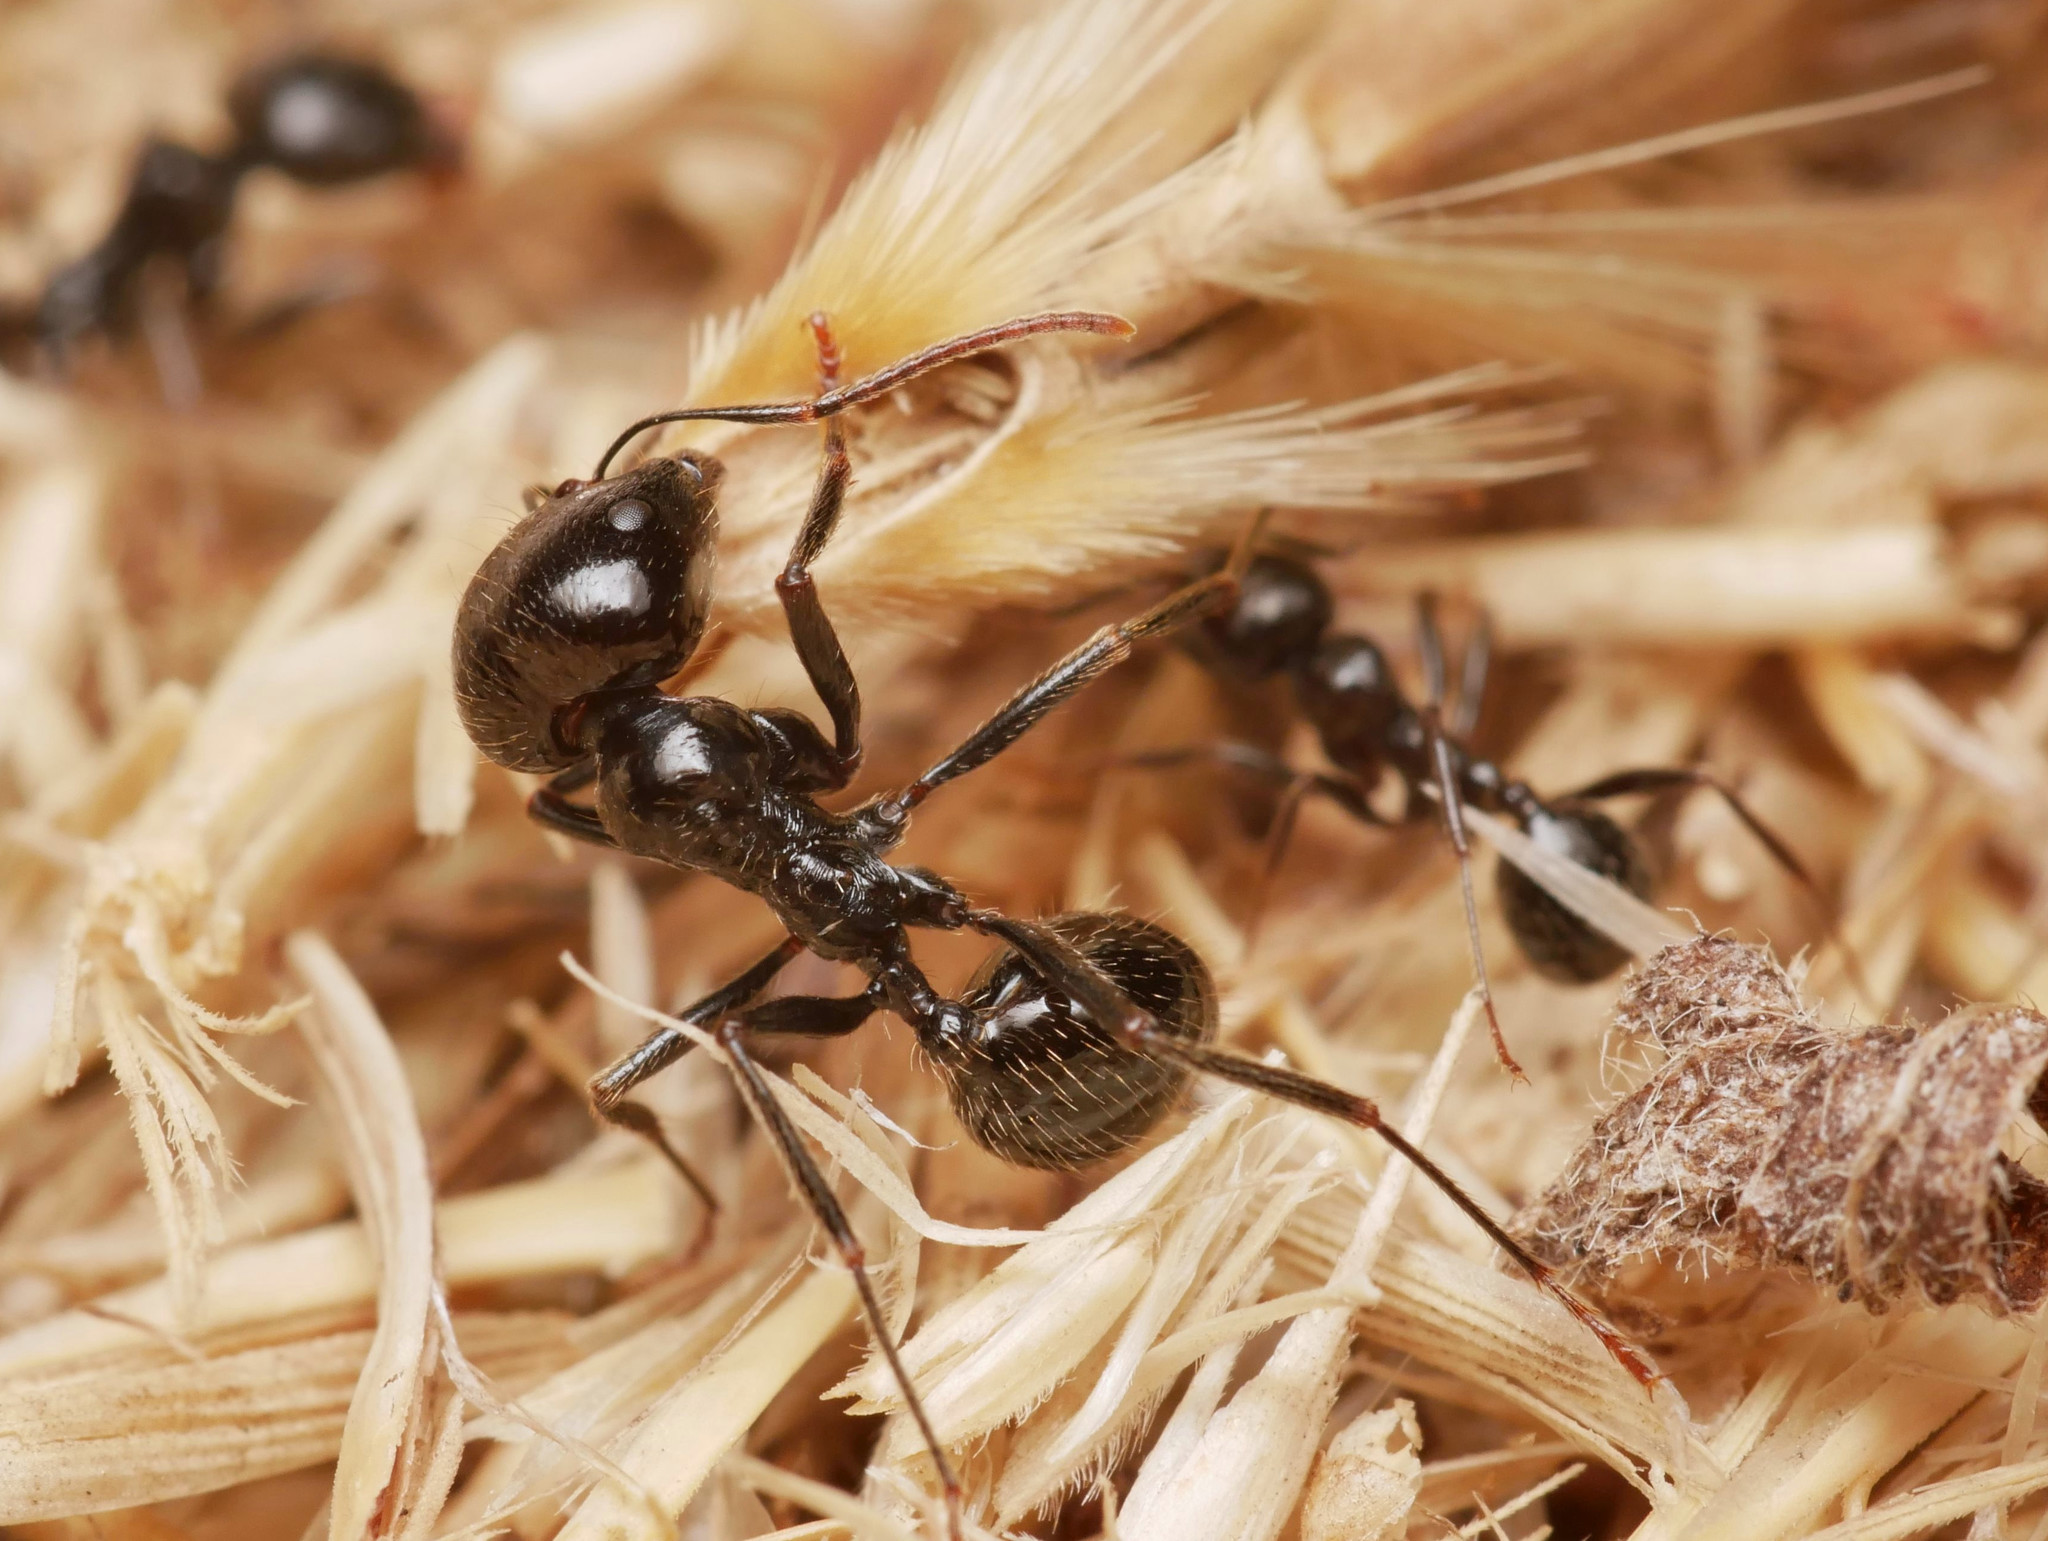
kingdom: Animalia
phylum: Arthropoda
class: Insecta
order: Hymenoptera
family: Formicidae
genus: Messor
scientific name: Messor barbarus
